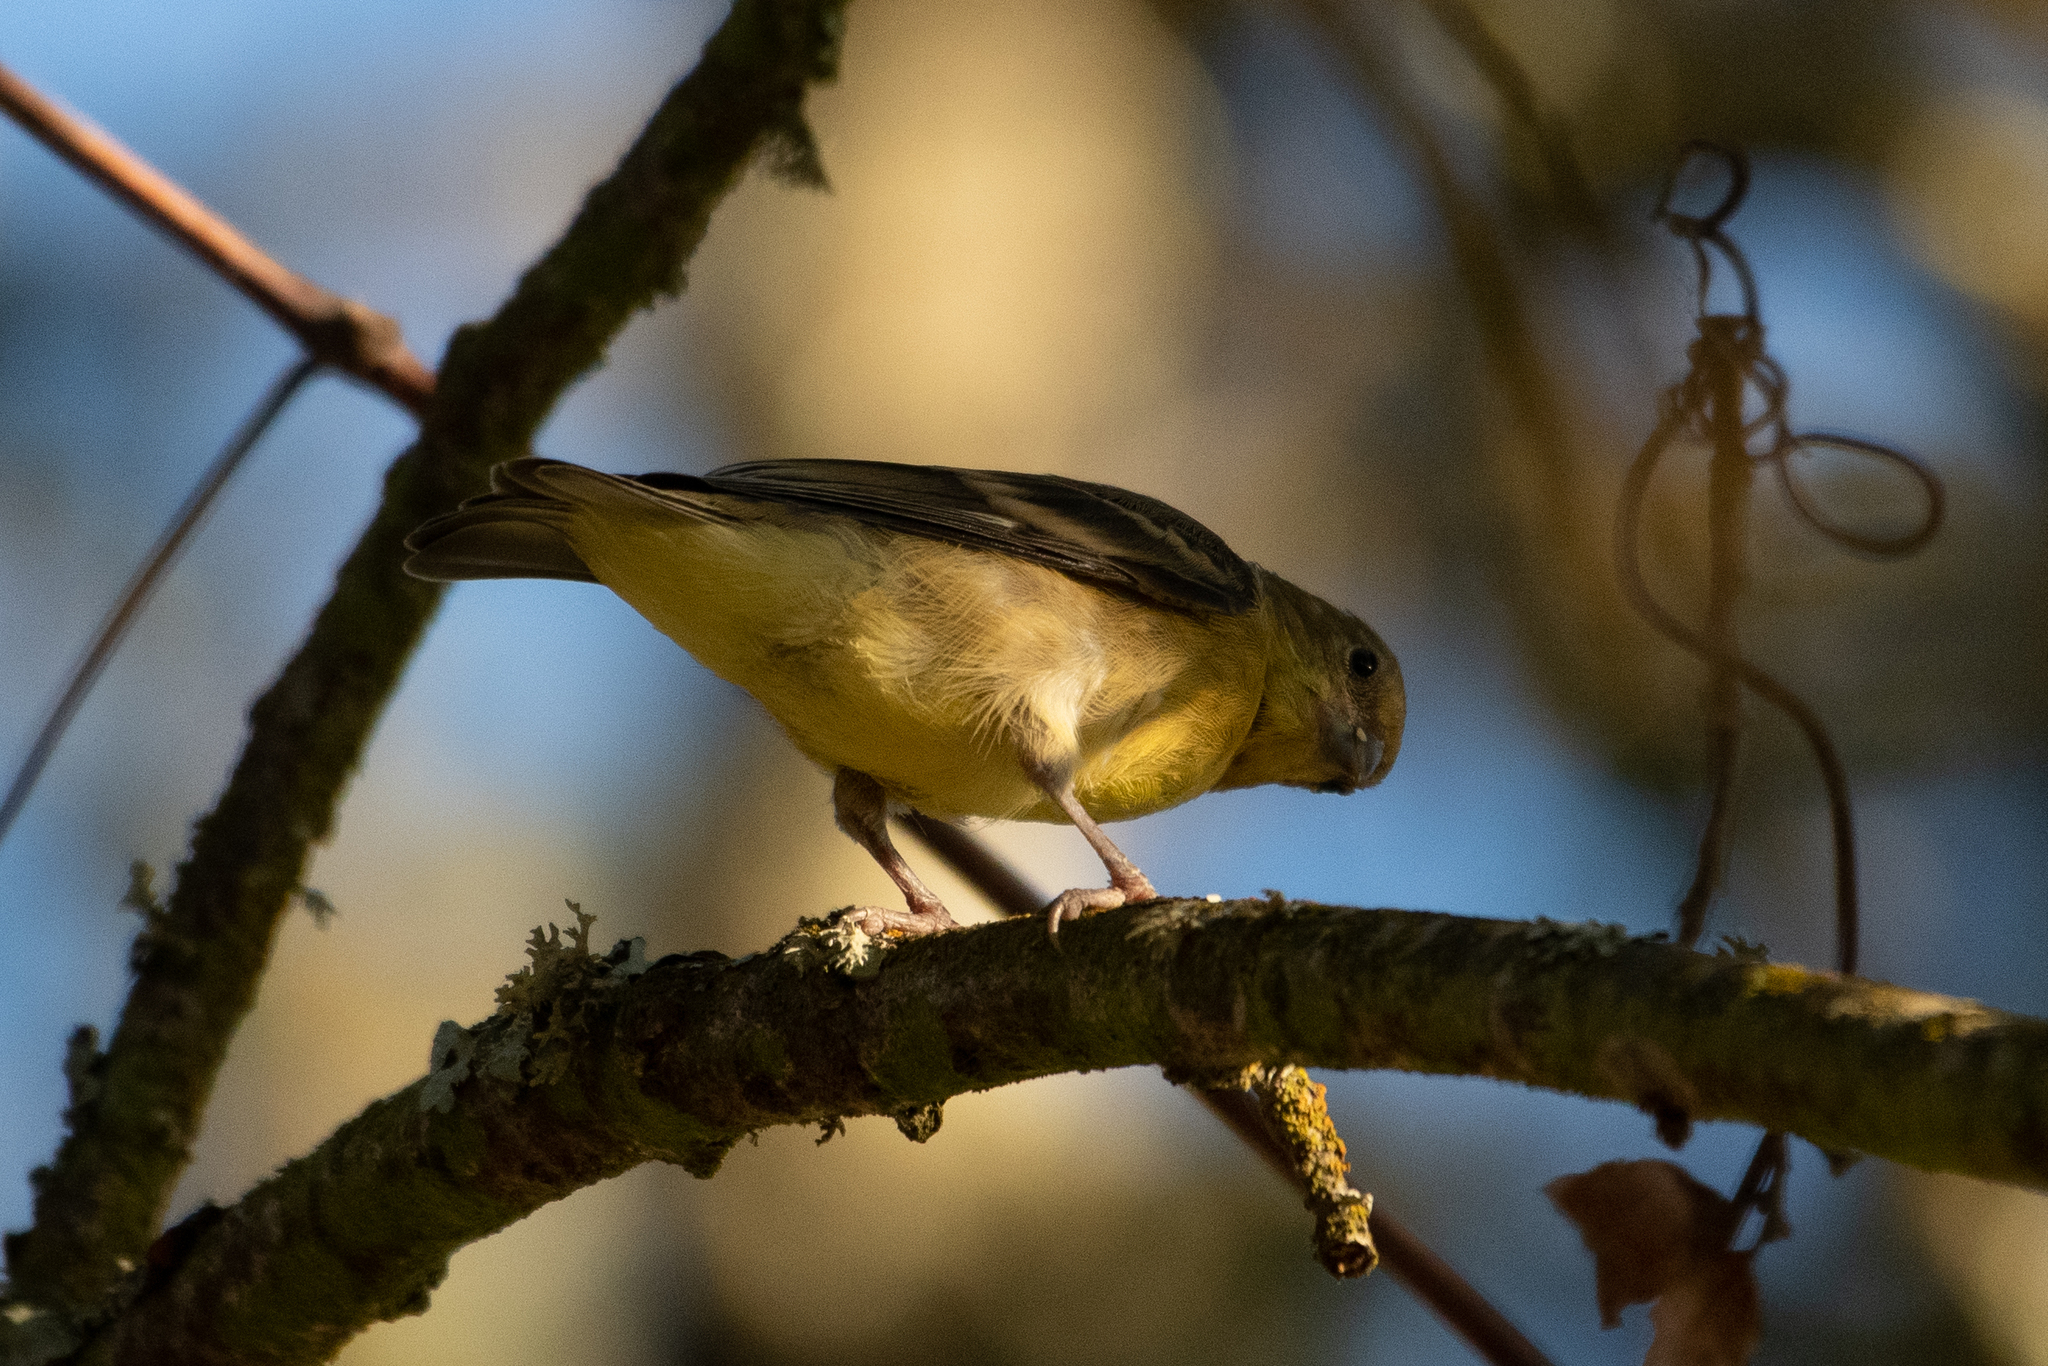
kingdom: Animalia
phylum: Chordata
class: Aves
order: Passeriformes
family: Fringillidae
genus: Spinus
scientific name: Spinus psaltria
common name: Lesser goldfinch
